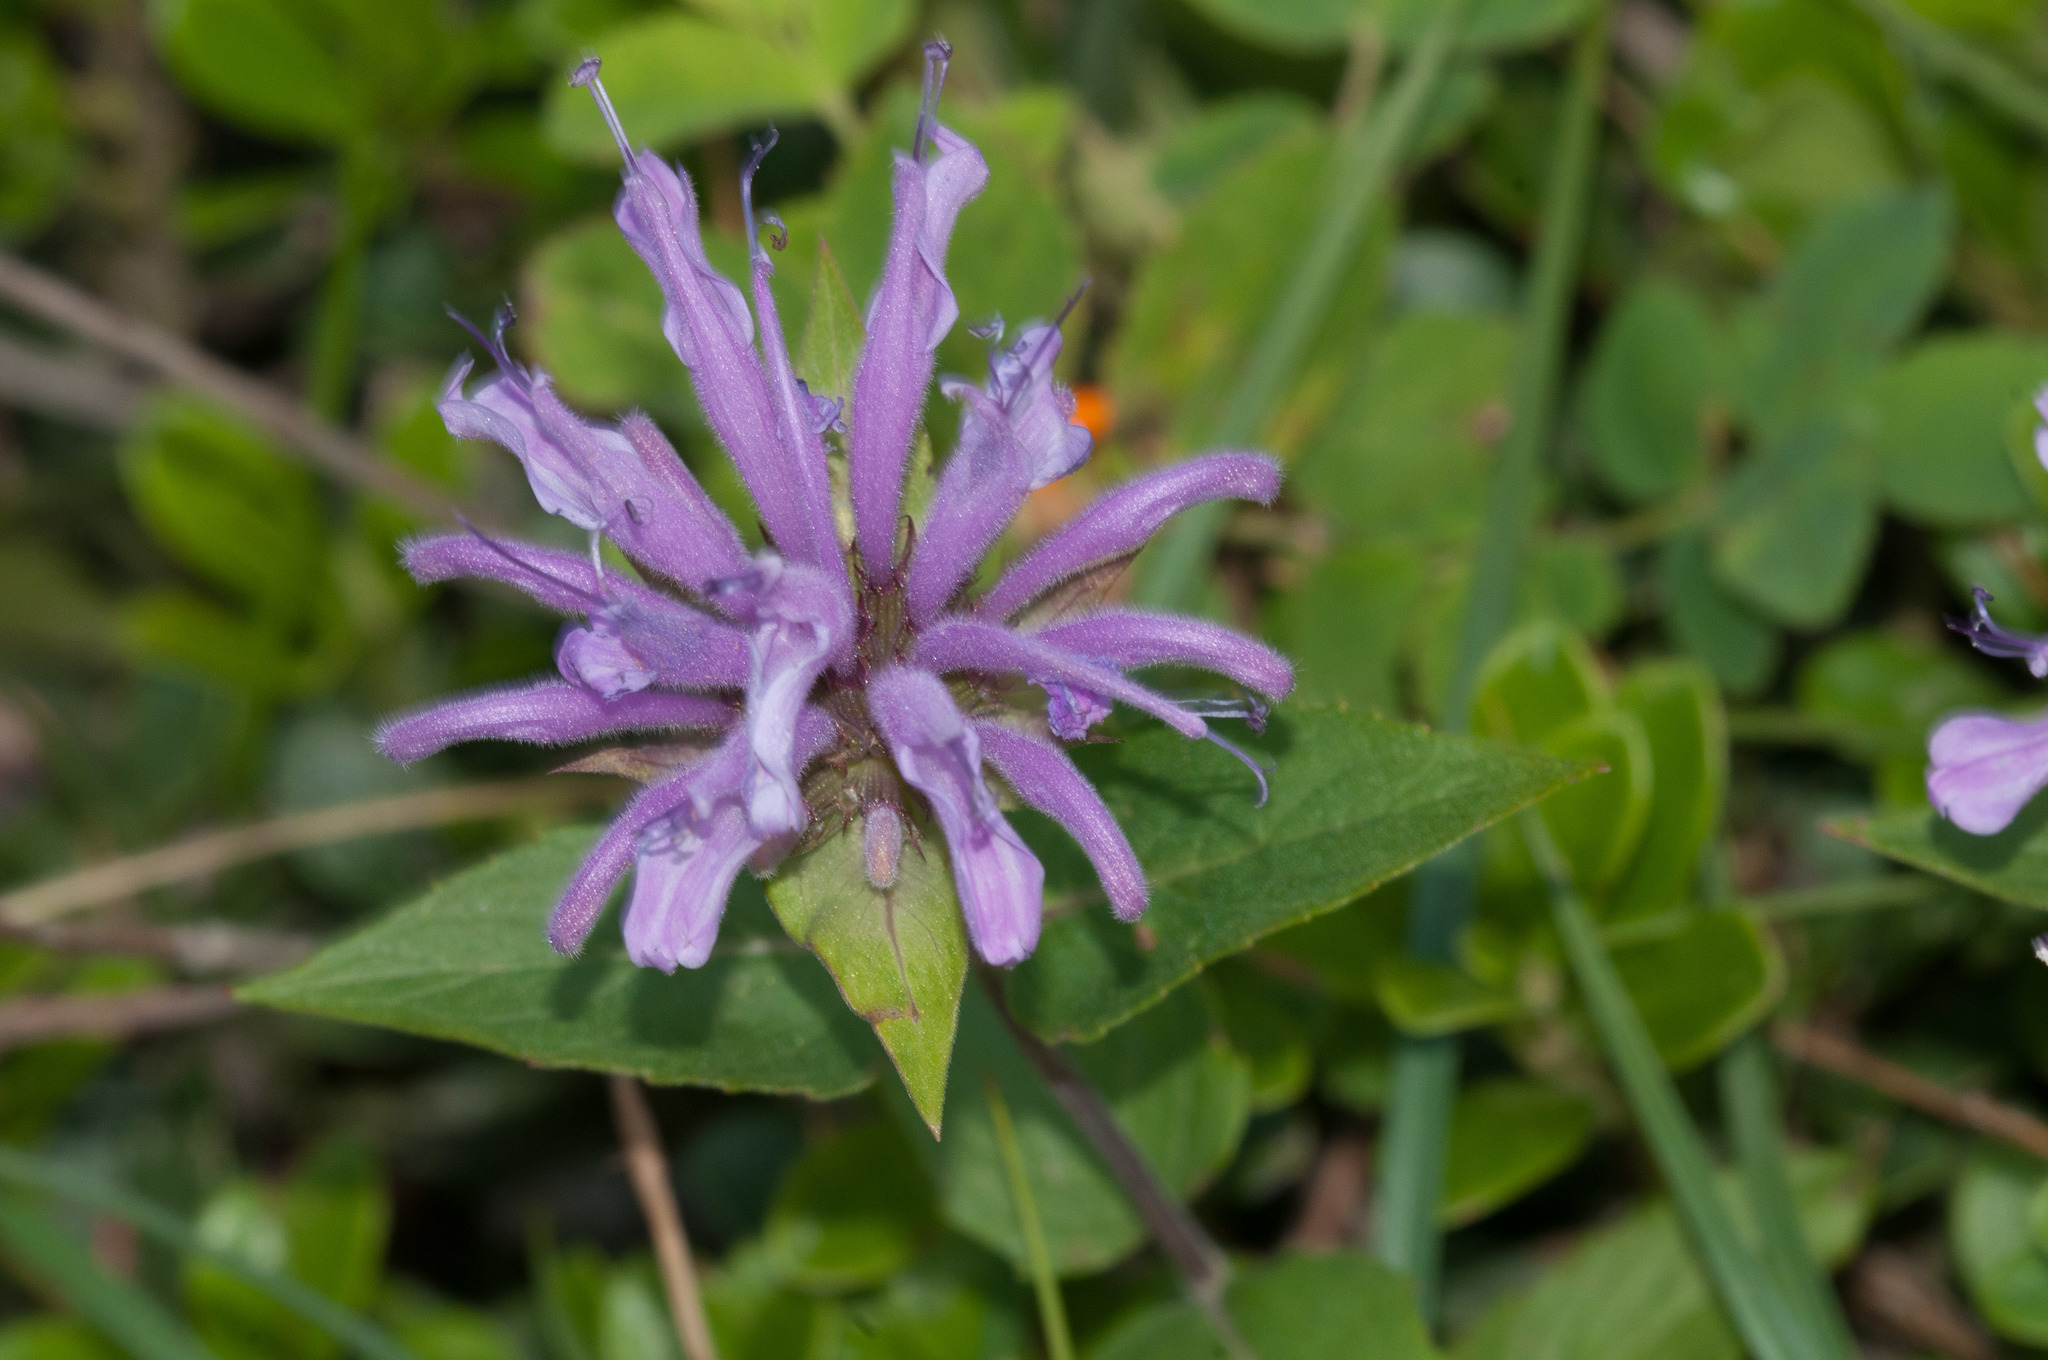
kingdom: Plantae
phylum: Tracheophyta
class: Magnoliopsida
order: Lamiales
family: Lamiaceae
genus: Monarda
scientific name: Monarda fistulosa
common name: Purple beebalm
